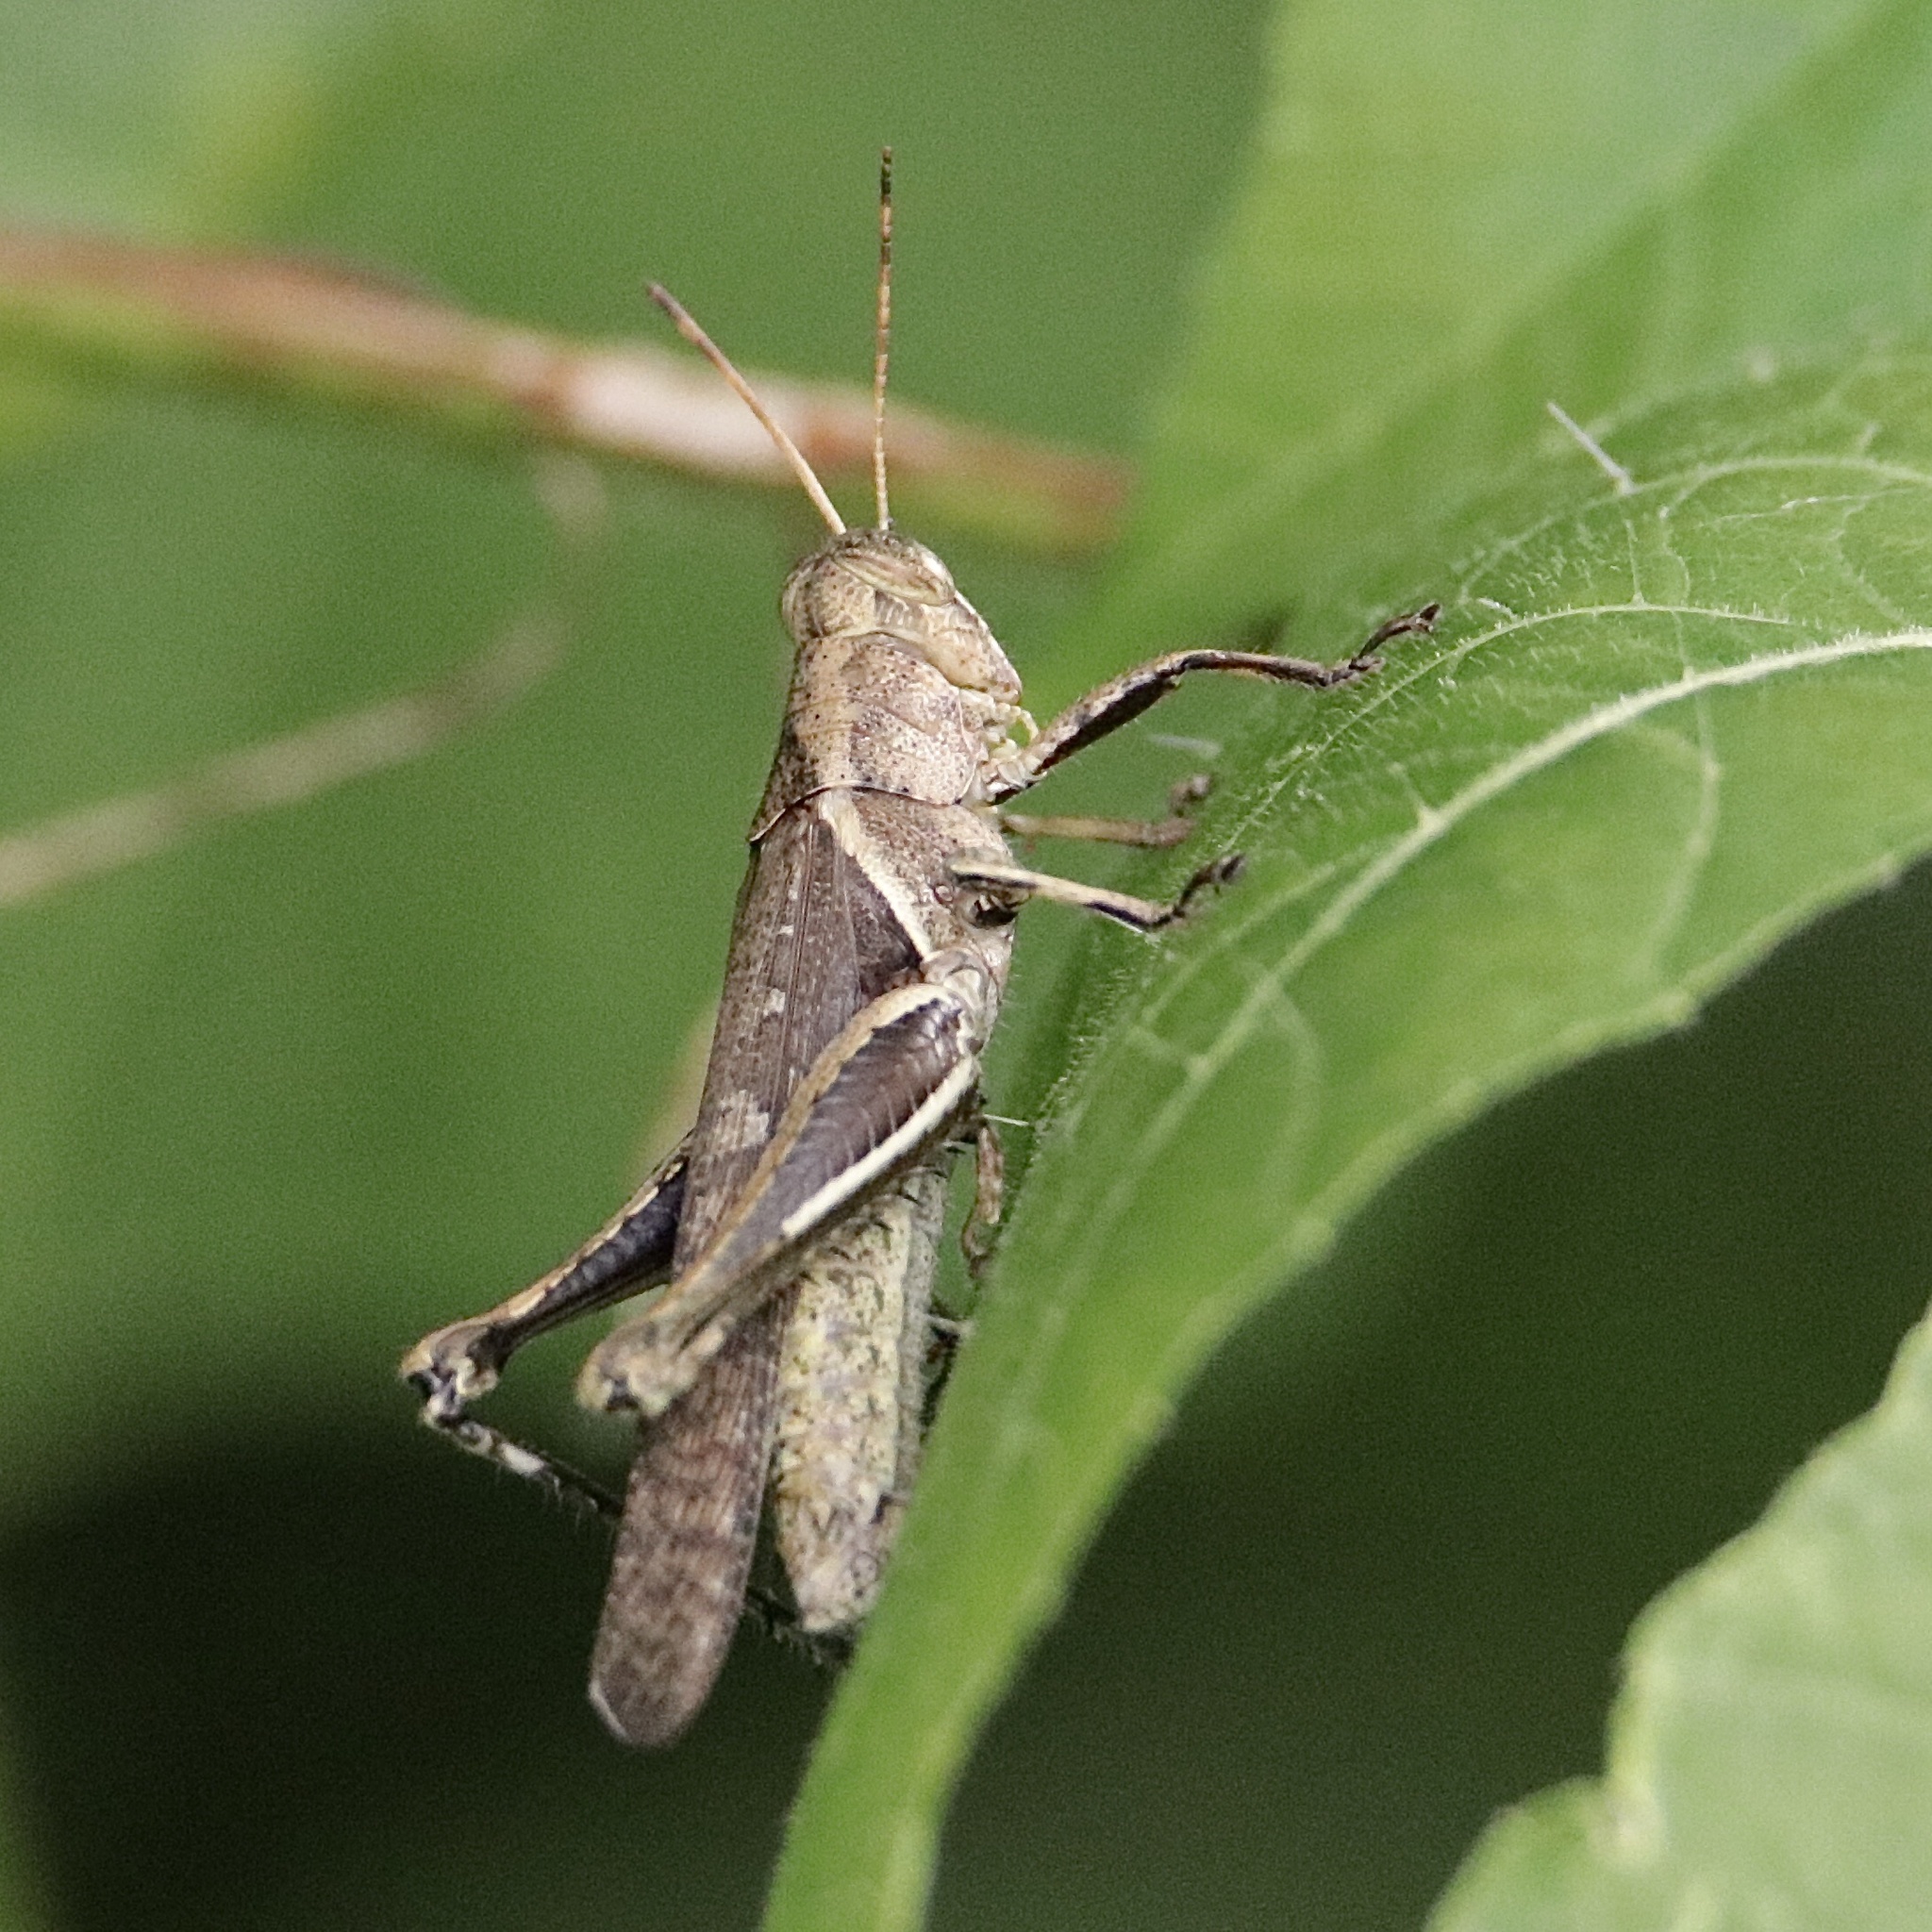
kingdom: Animalia
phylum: Arthropoda
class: Insecta
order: Orthoptera
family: Acrididae
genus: Abracris
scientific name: Abracris flavolineata
